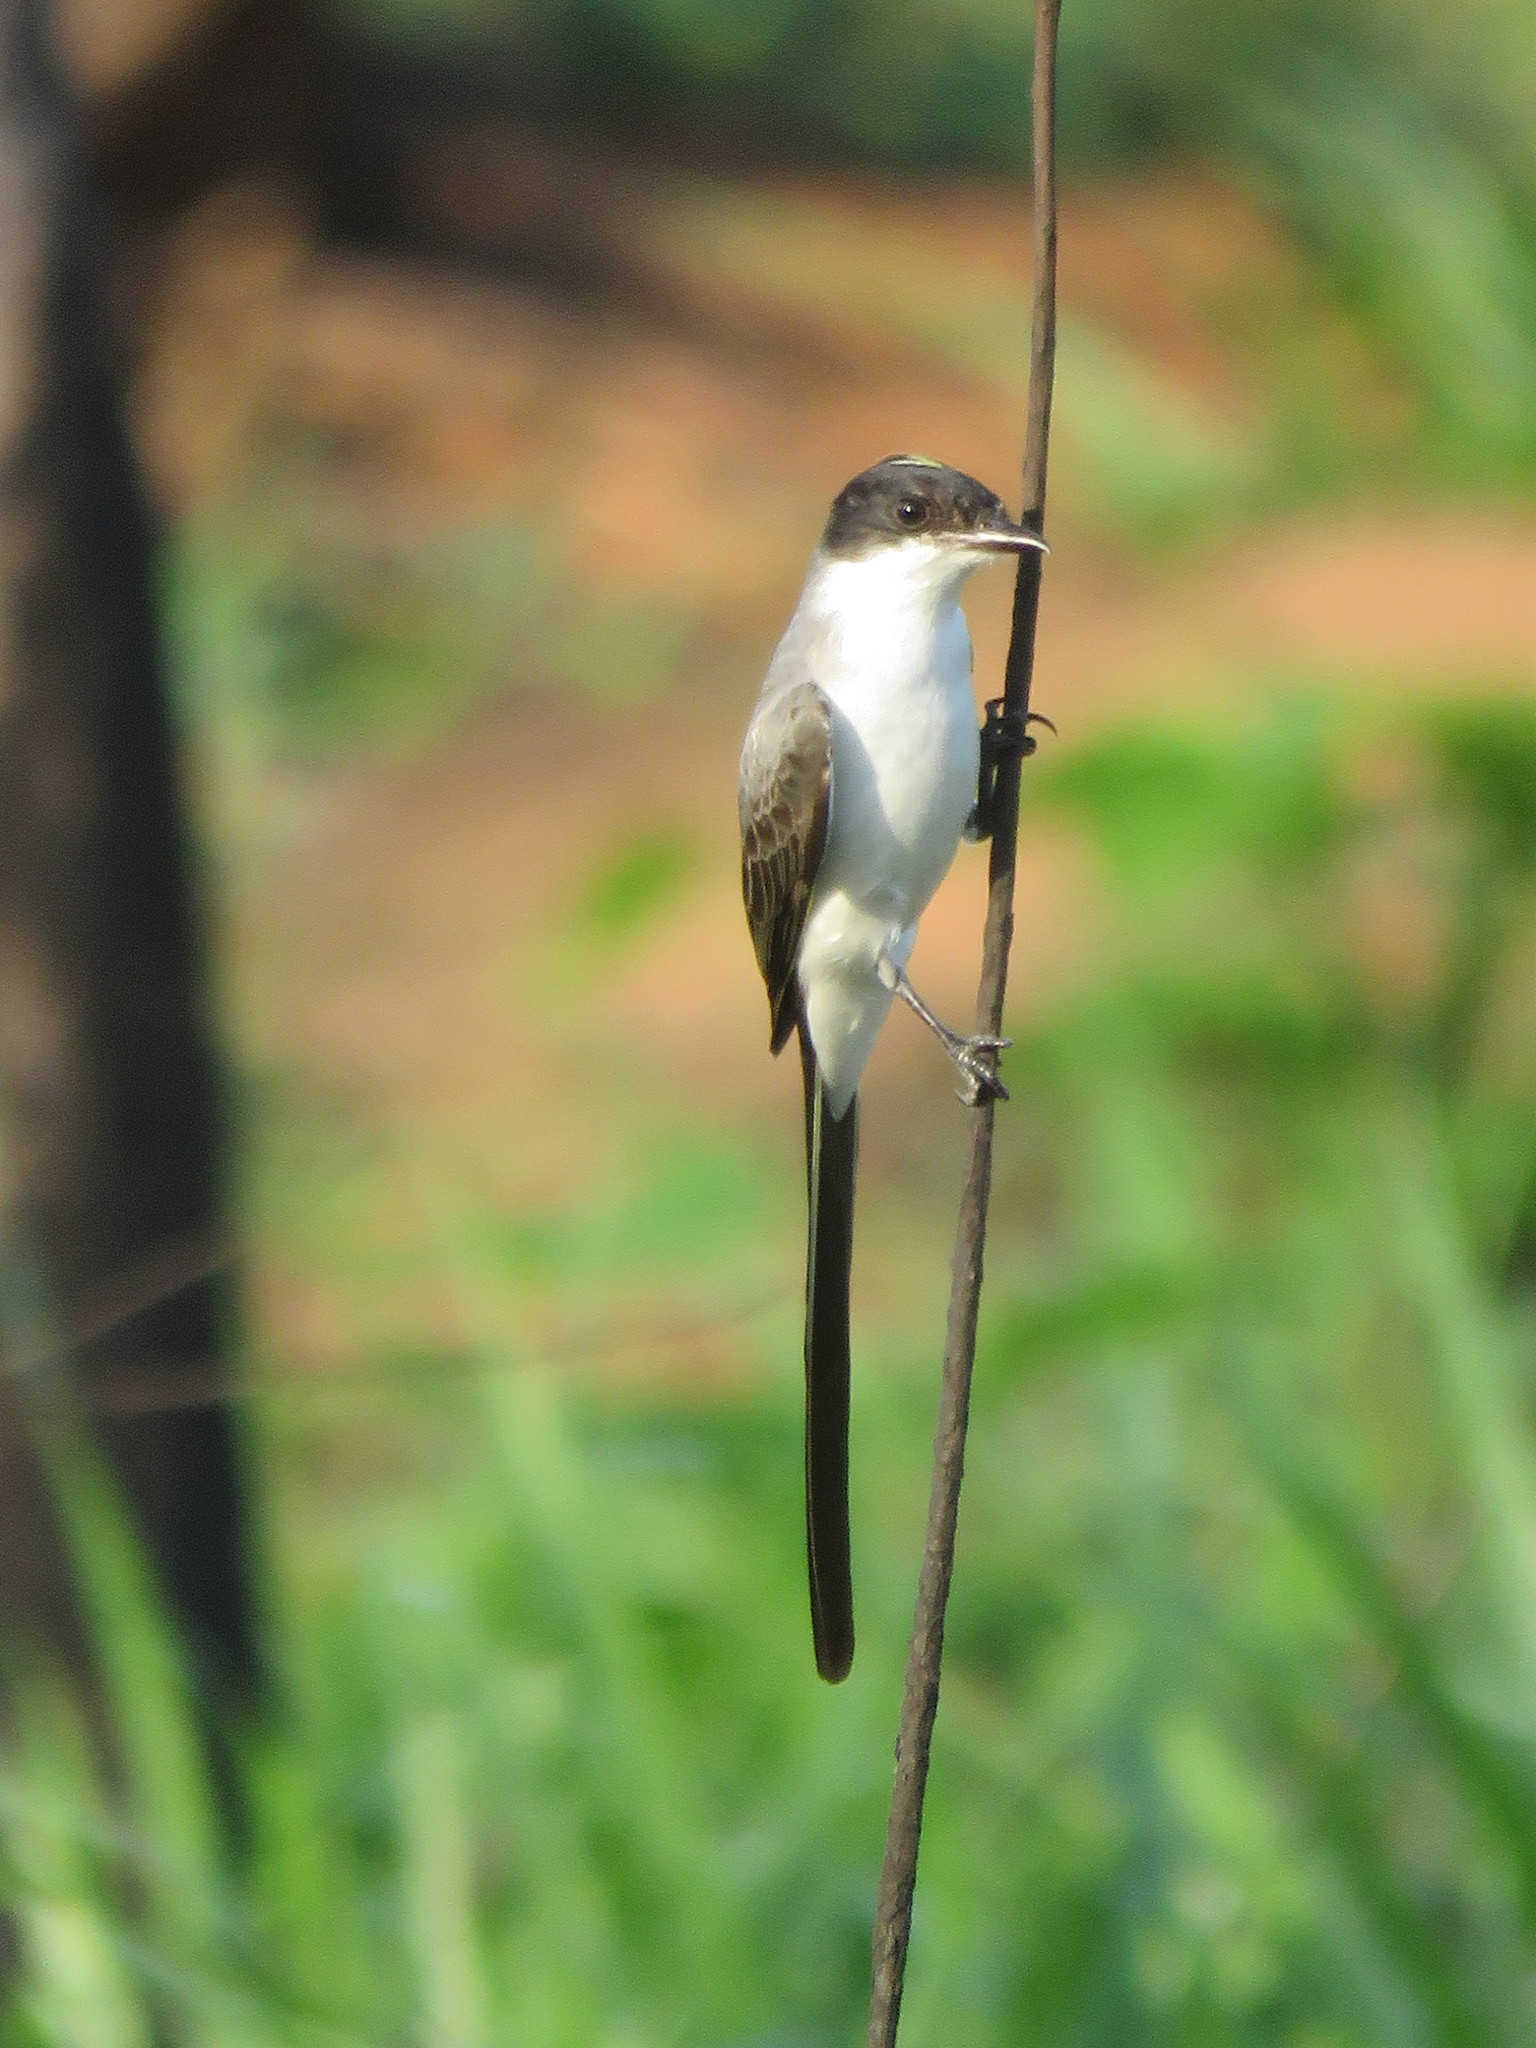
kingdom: Animalia
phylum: Chordata
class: Aves
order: Passeriformes
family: Tyrannidae
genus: Tyrannus
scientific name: Tyrannus savana
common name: Fork-tailed flycatcher
